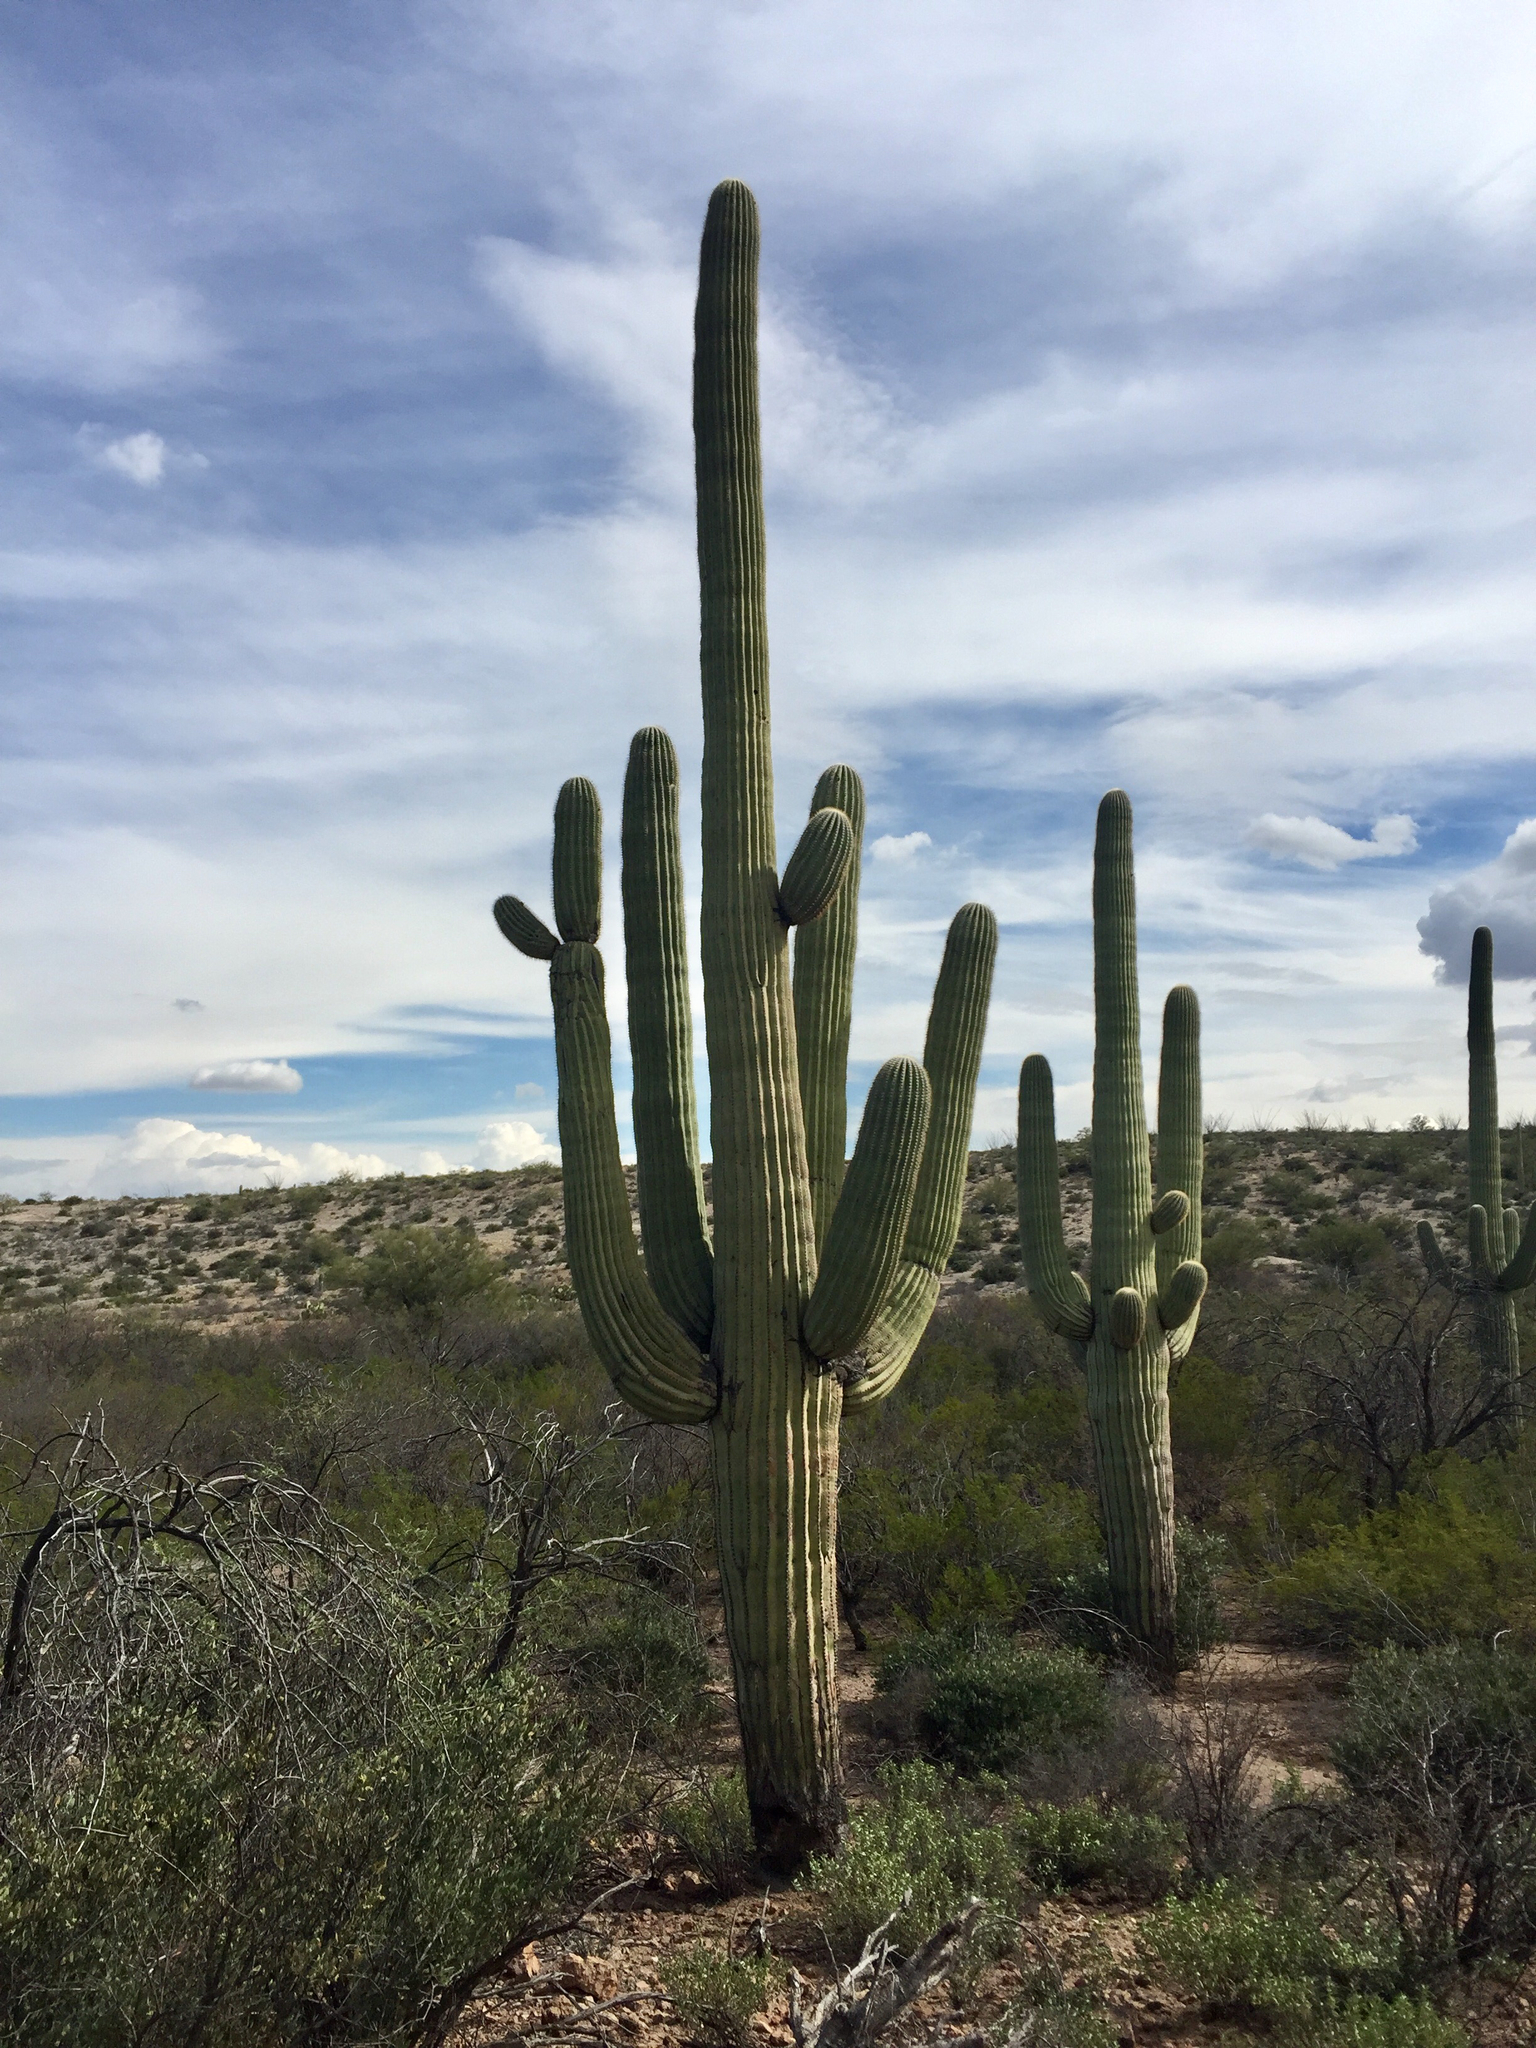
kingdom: Plantae
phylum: Tracheophyta
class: Magnoliopsida
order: Caryophyllales
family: Cactaceae
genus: Carnegiea
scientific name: Carnegiea gigantea
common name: Saguaro
